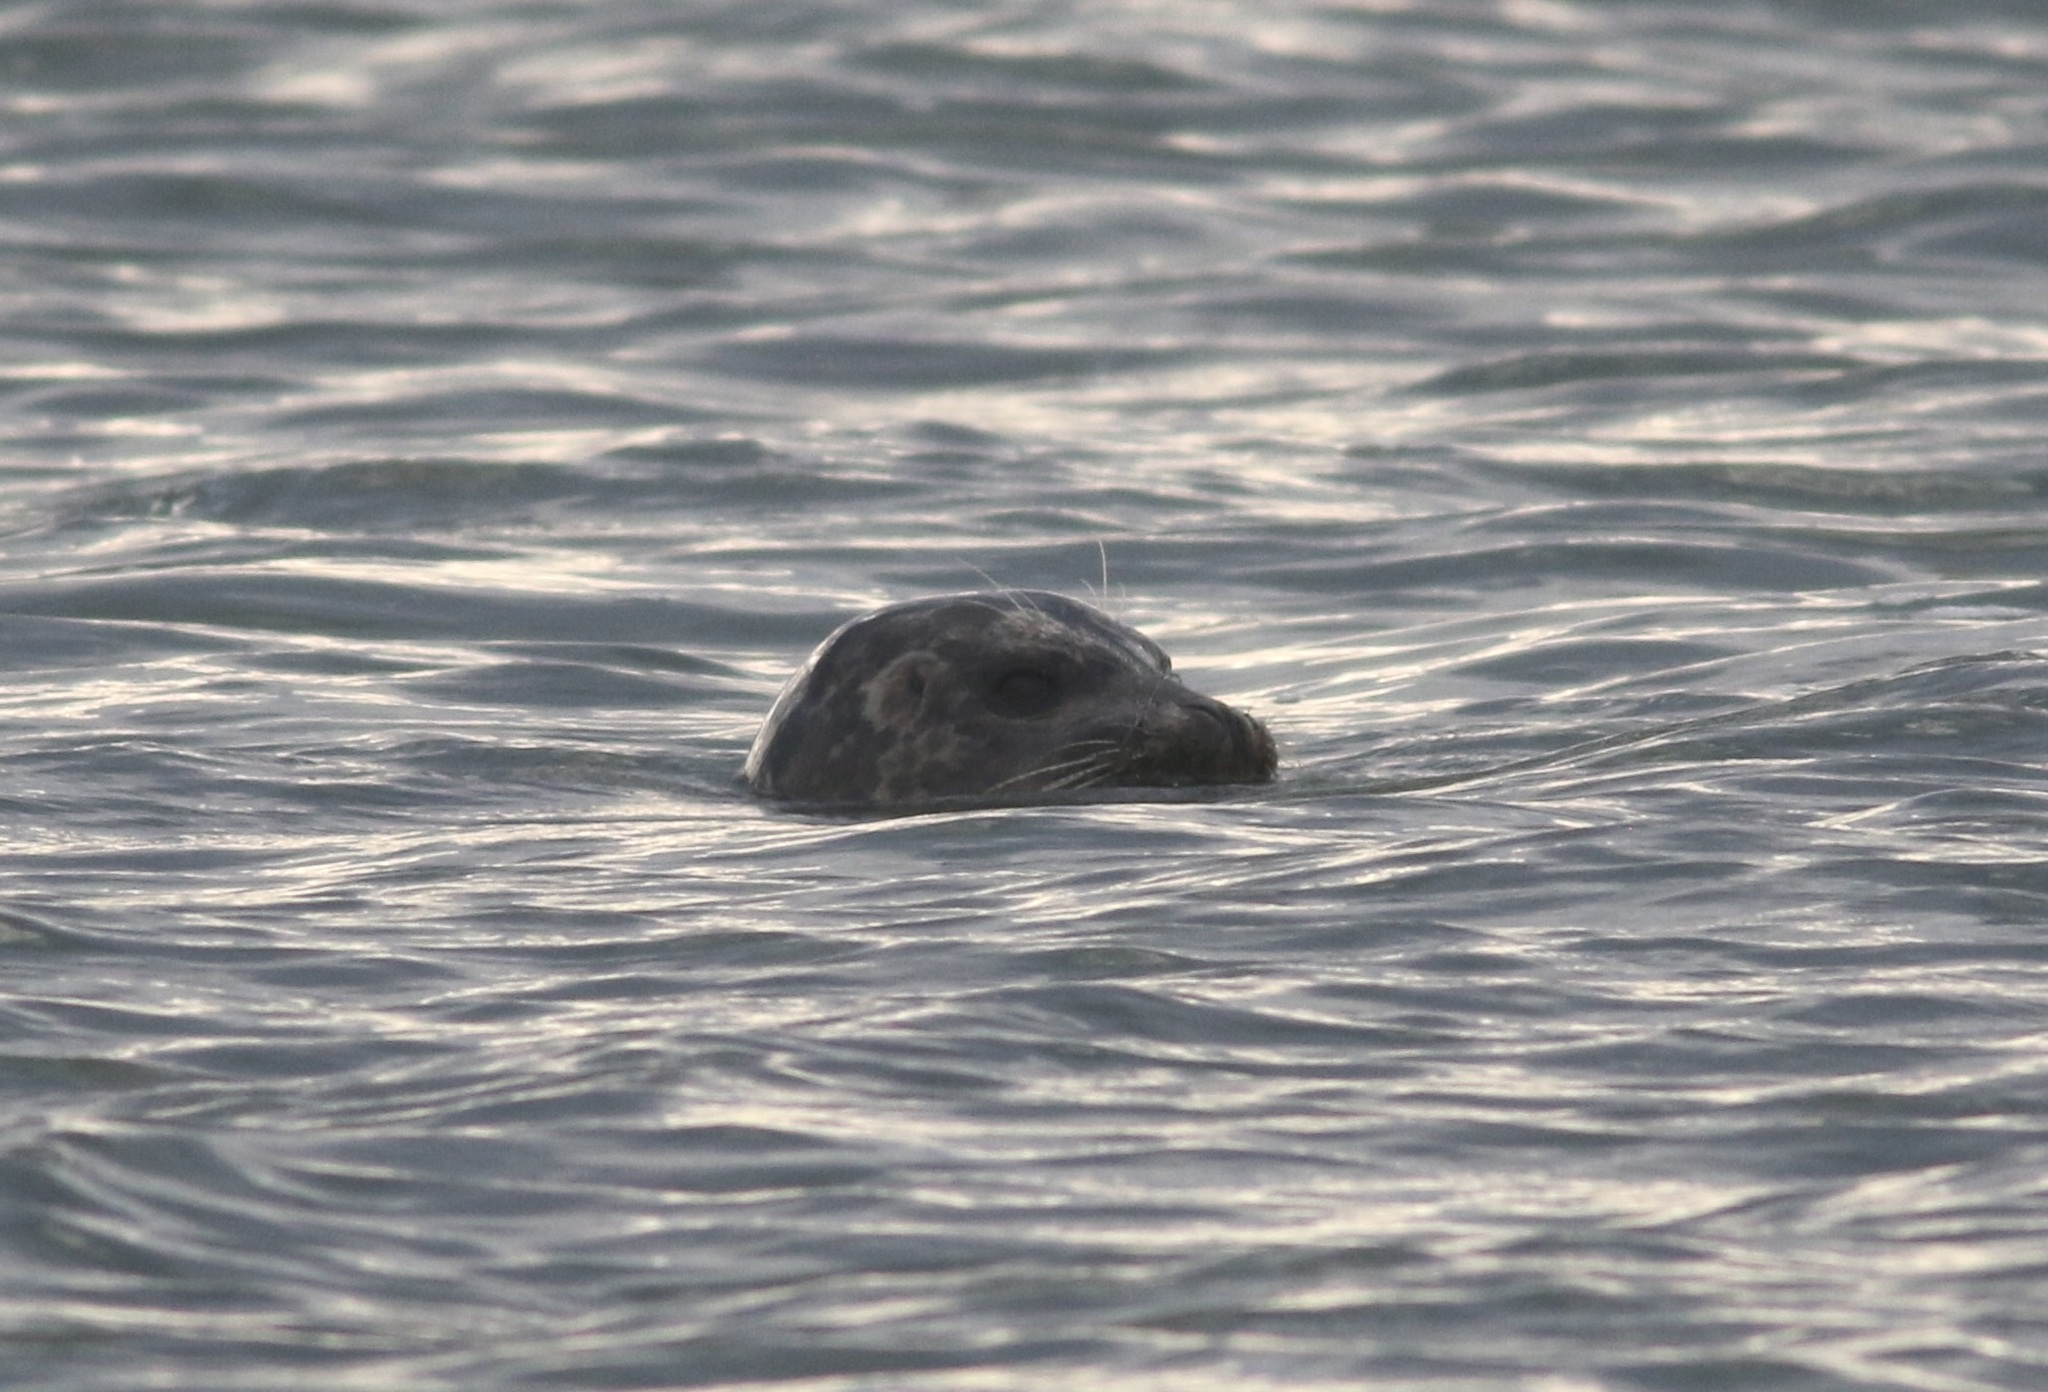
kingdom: Animalia
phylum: Chordata
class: Mammalia
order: Carnivora
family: Phocidae
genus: Phoca
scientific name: Phoca vitulina
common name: Harbor seal
